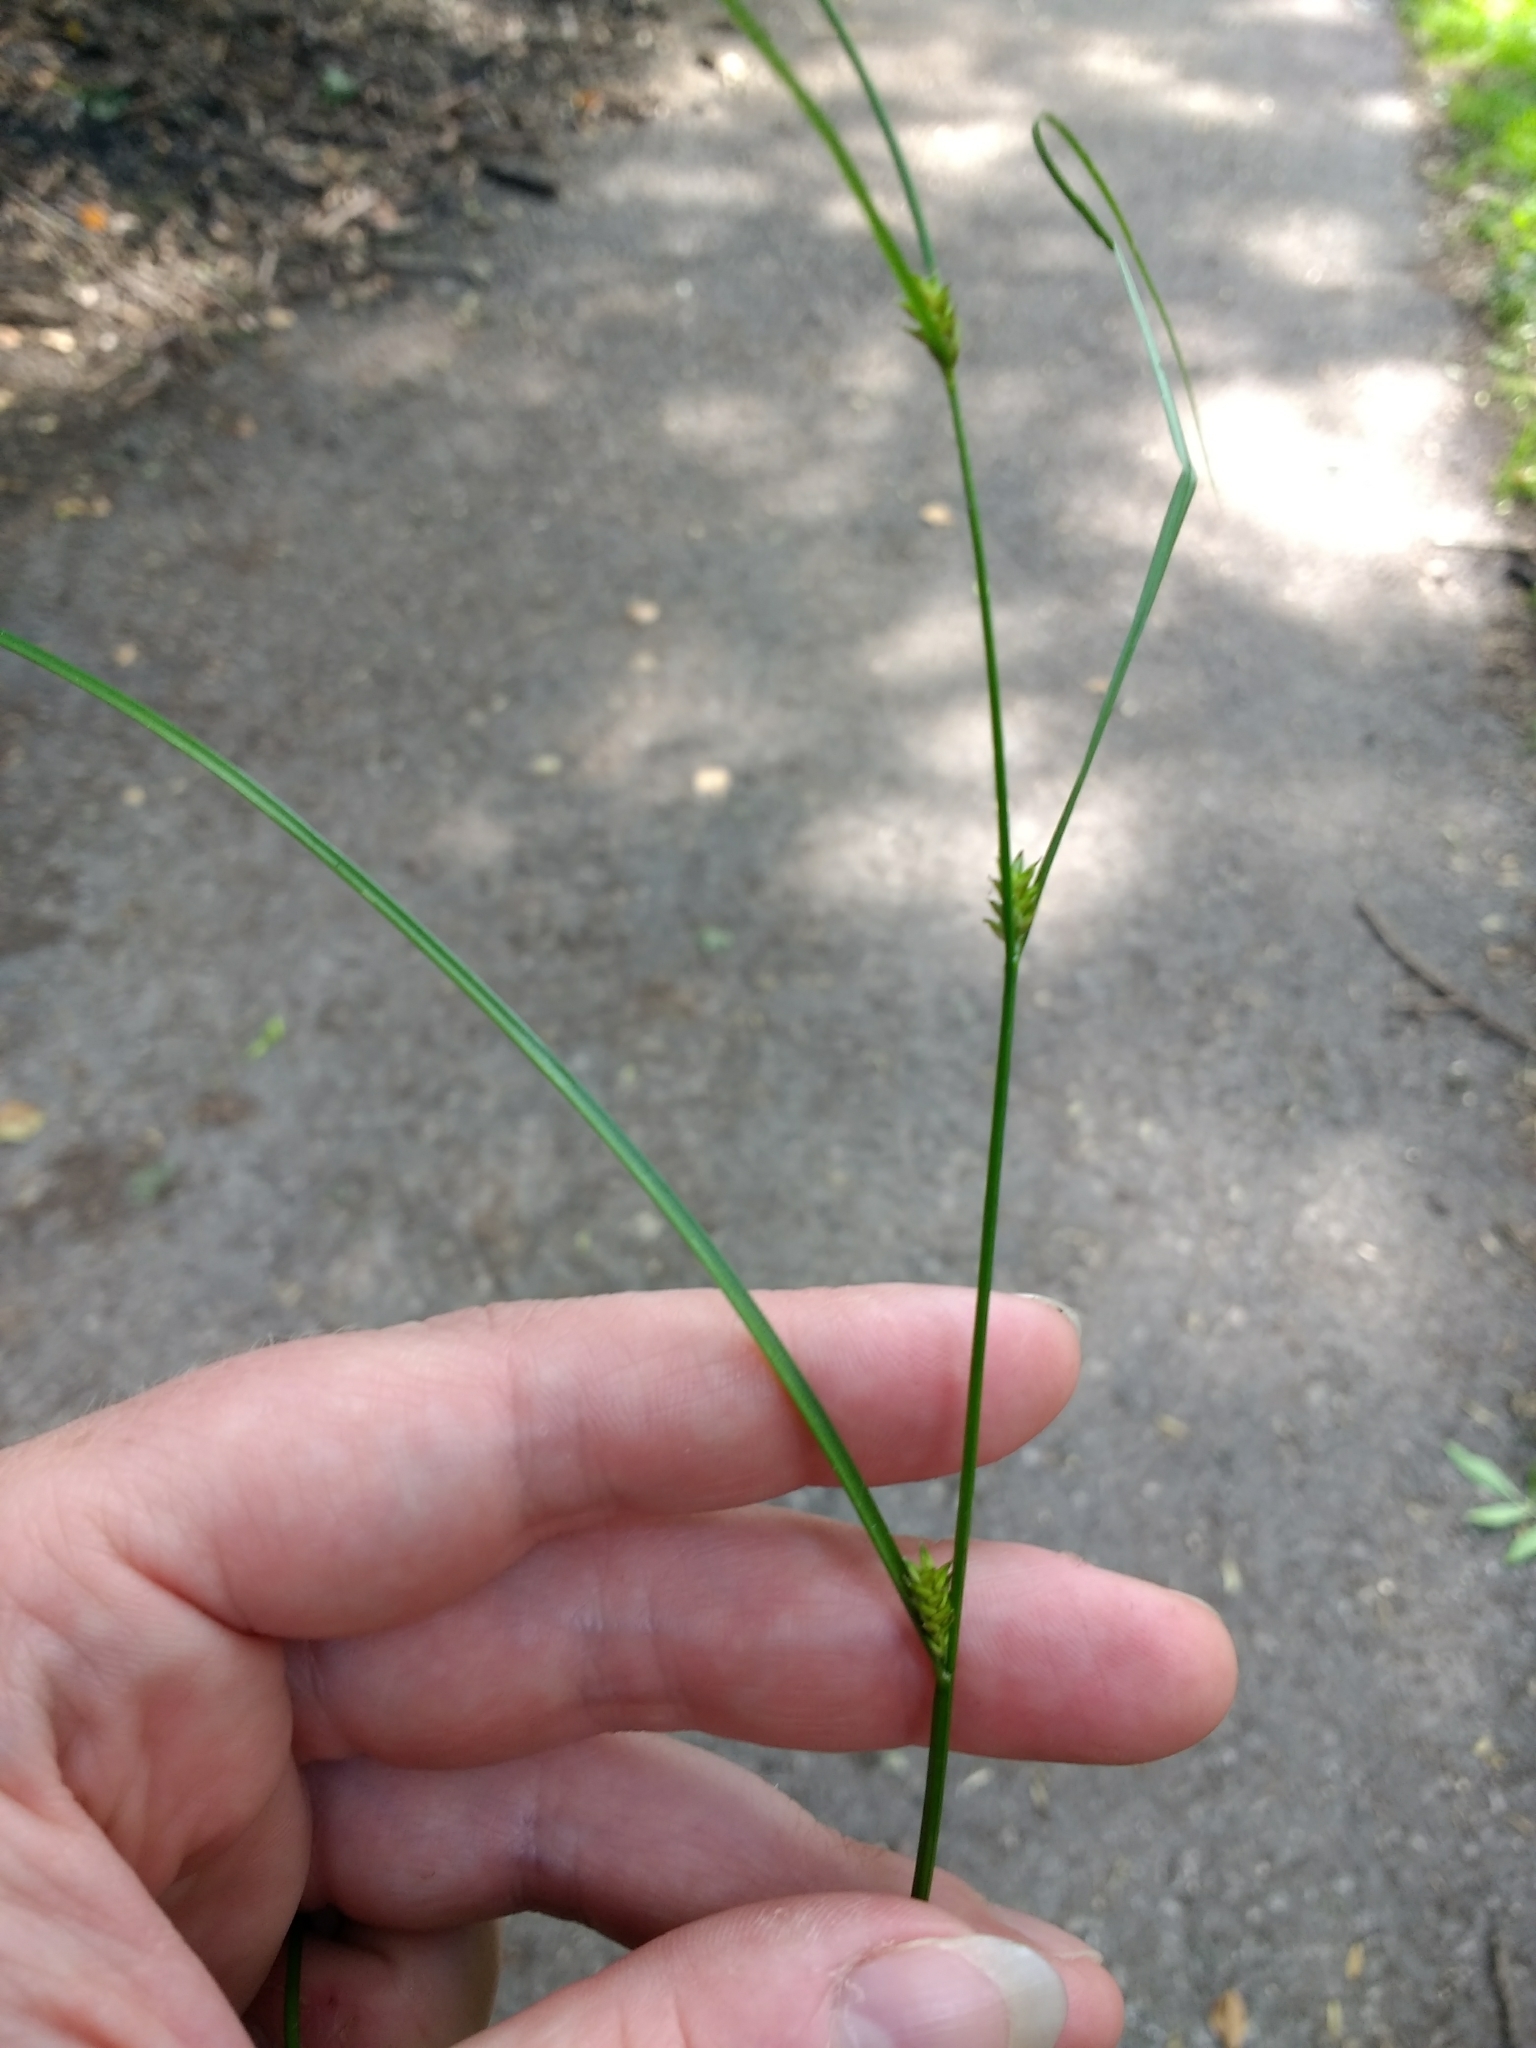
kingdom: Plantae
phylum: Tracheophyta
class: Liliopsida
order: Poales
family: Cyperaceae
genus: Carex
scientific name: Carex remota
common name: Remote sedge
